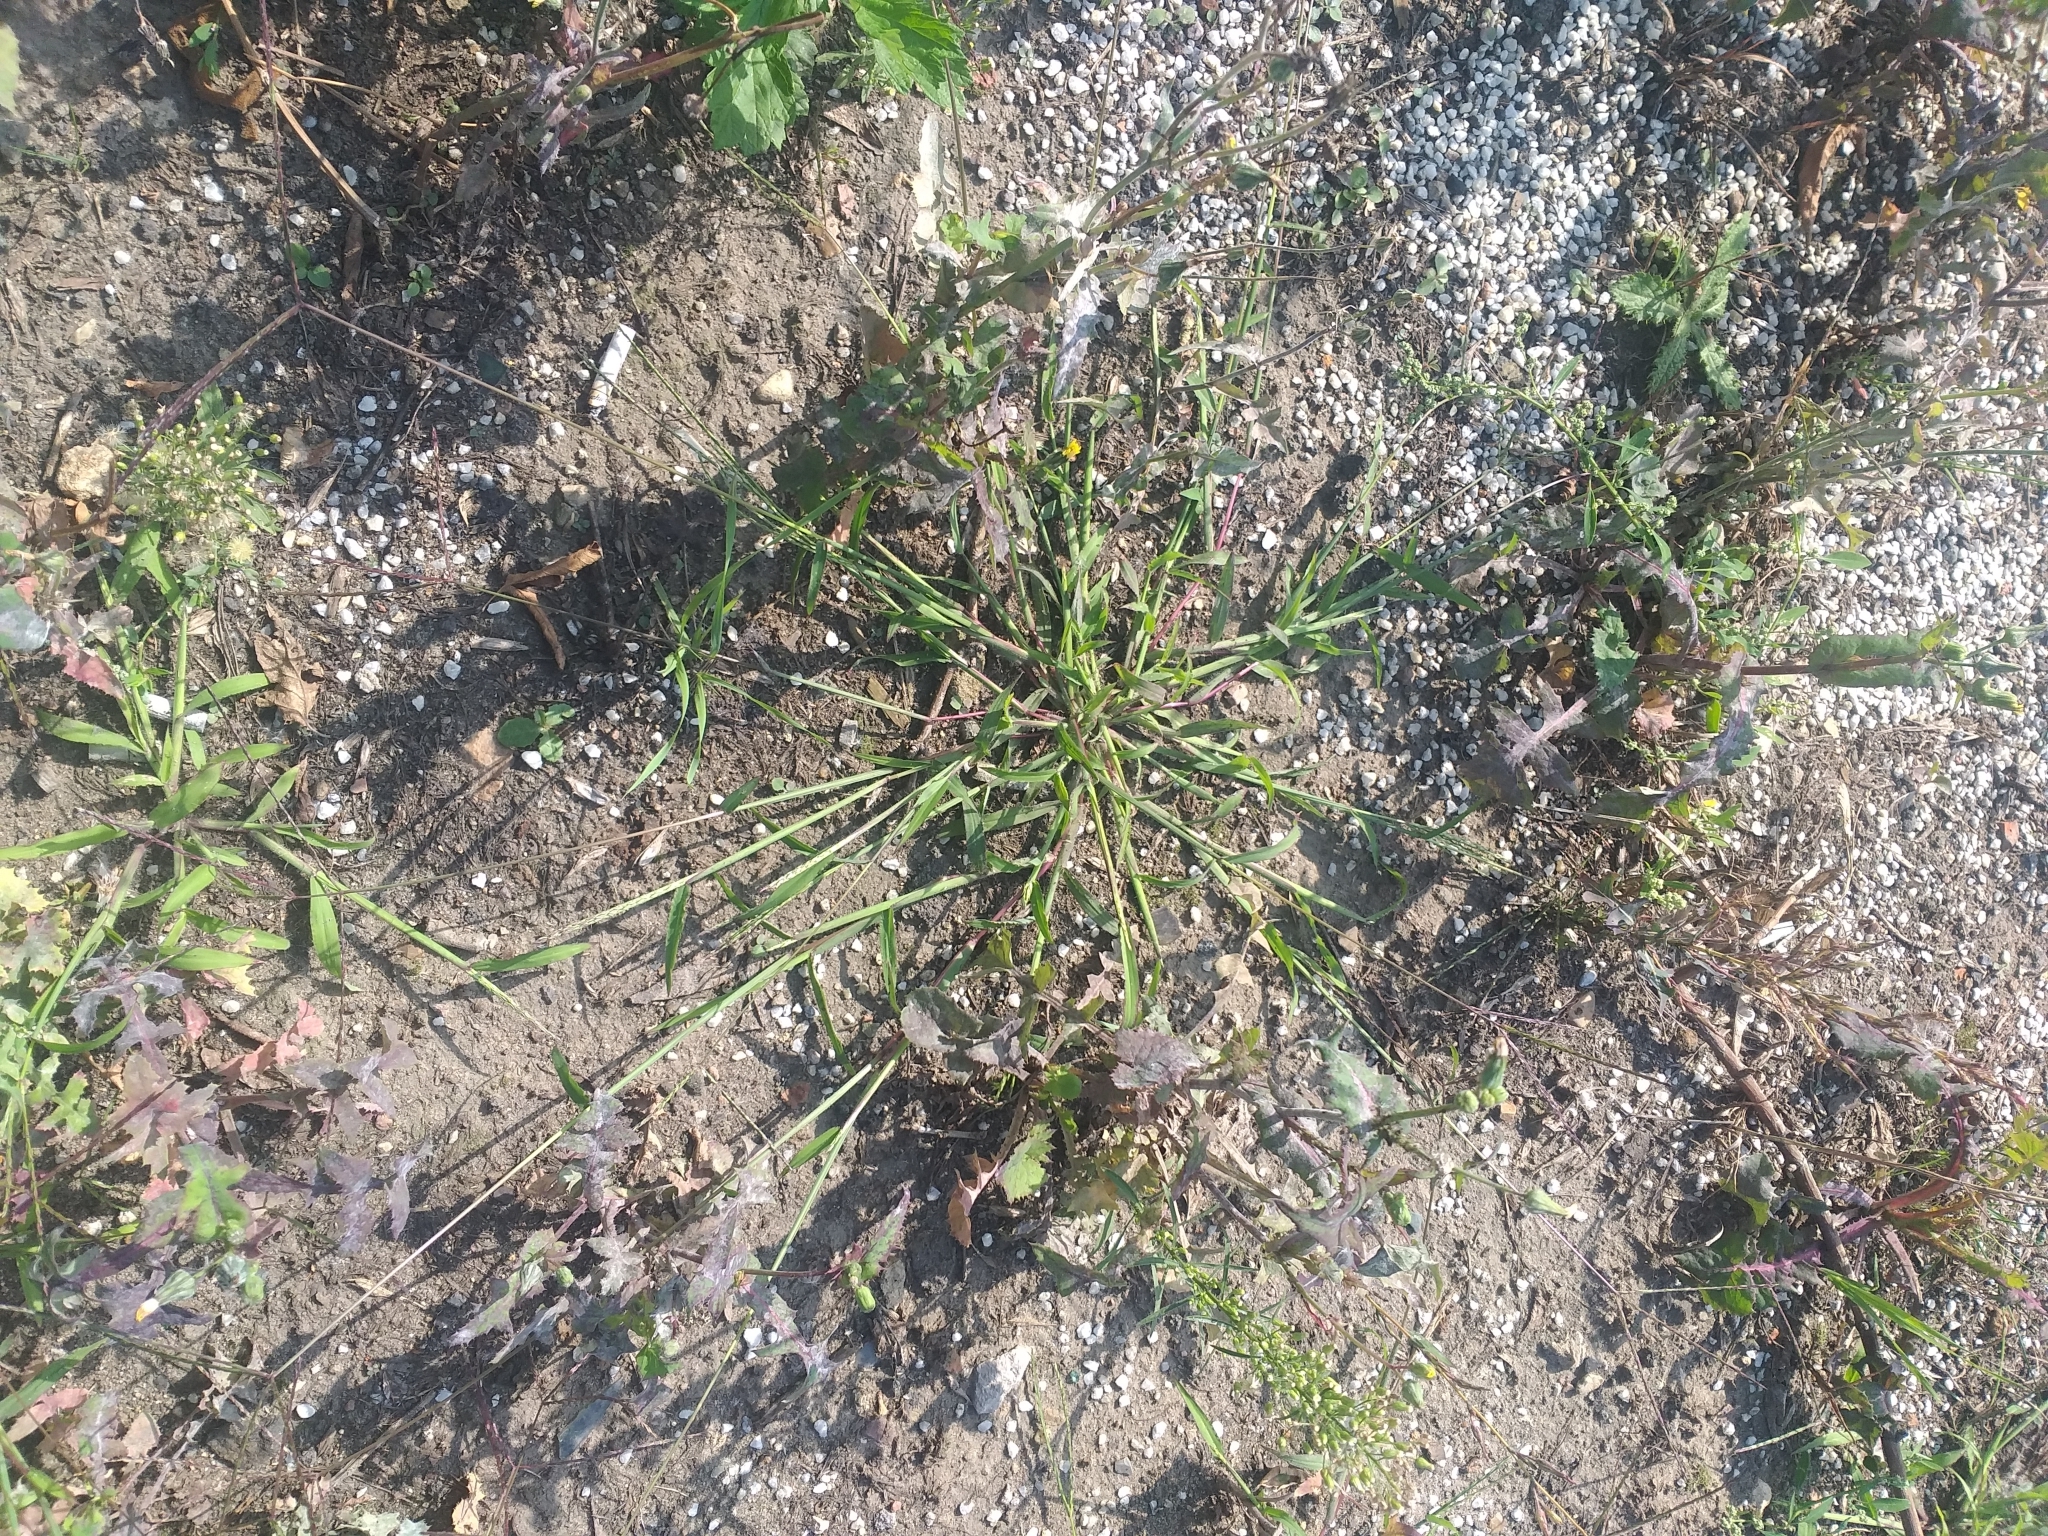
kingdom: Plantae
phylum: Tracheophyta
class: Liliopsida
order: Poales
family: Poaceae
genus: Digitaria
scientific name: Digitaria sanguinalis
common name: Hairy crabgrass
